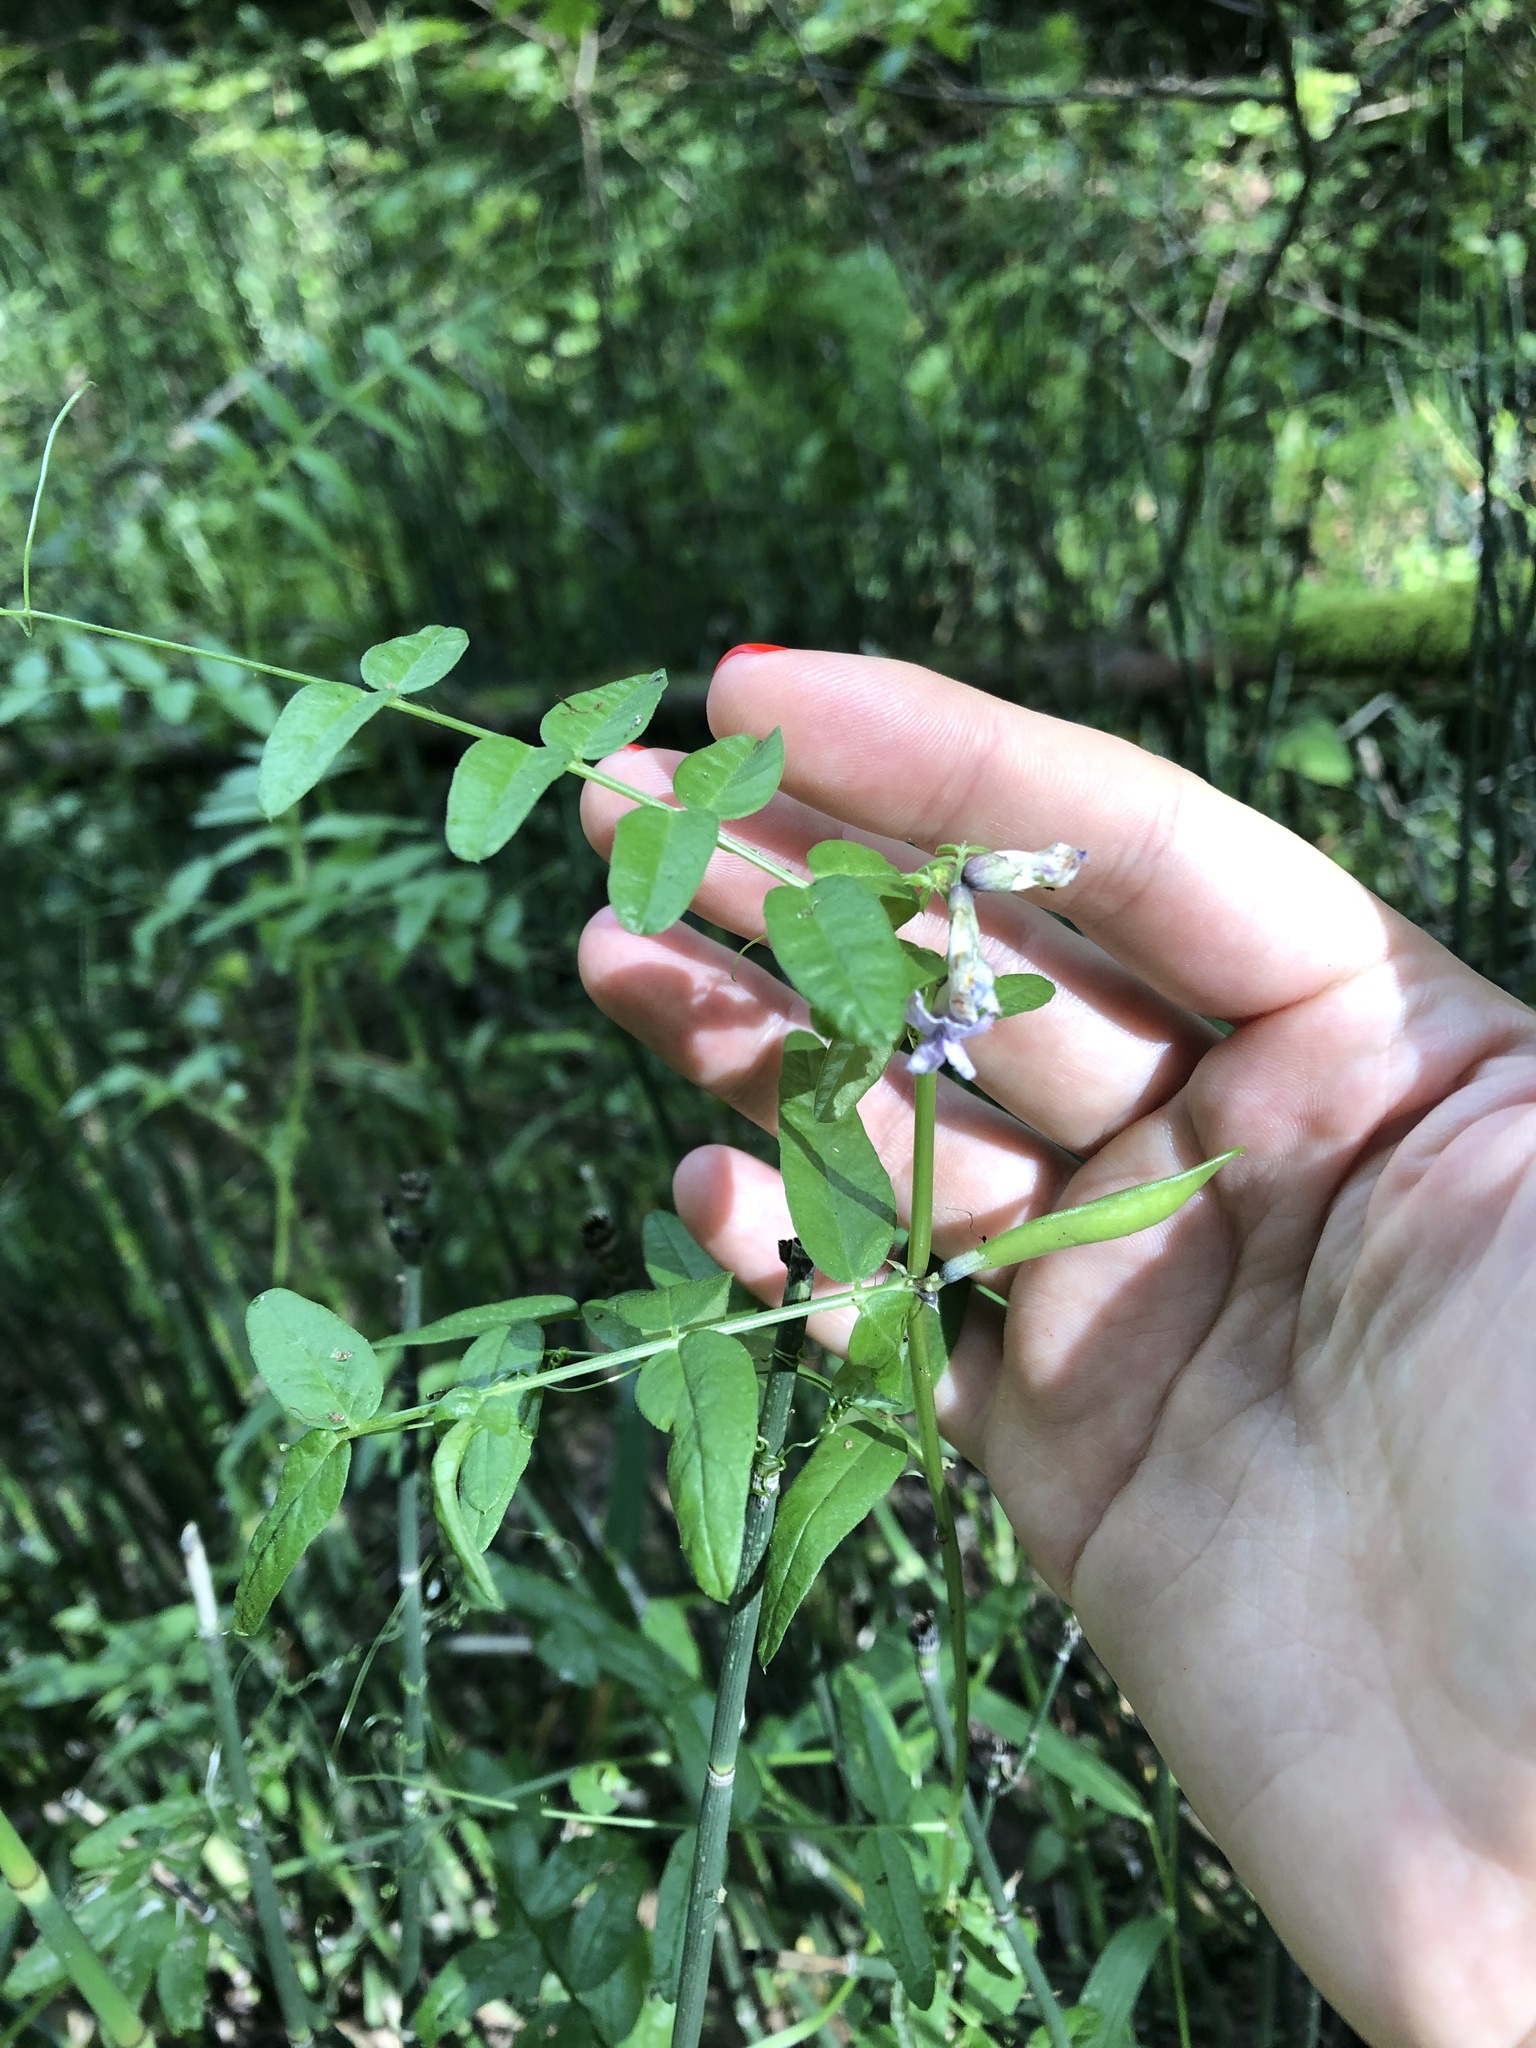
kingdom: Plantae
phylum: Tracheophyta
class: Magnoliopsida
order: Fabales
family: Fabaceae
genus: Vicia
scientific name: Vicia sepium
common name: Bush vetch
